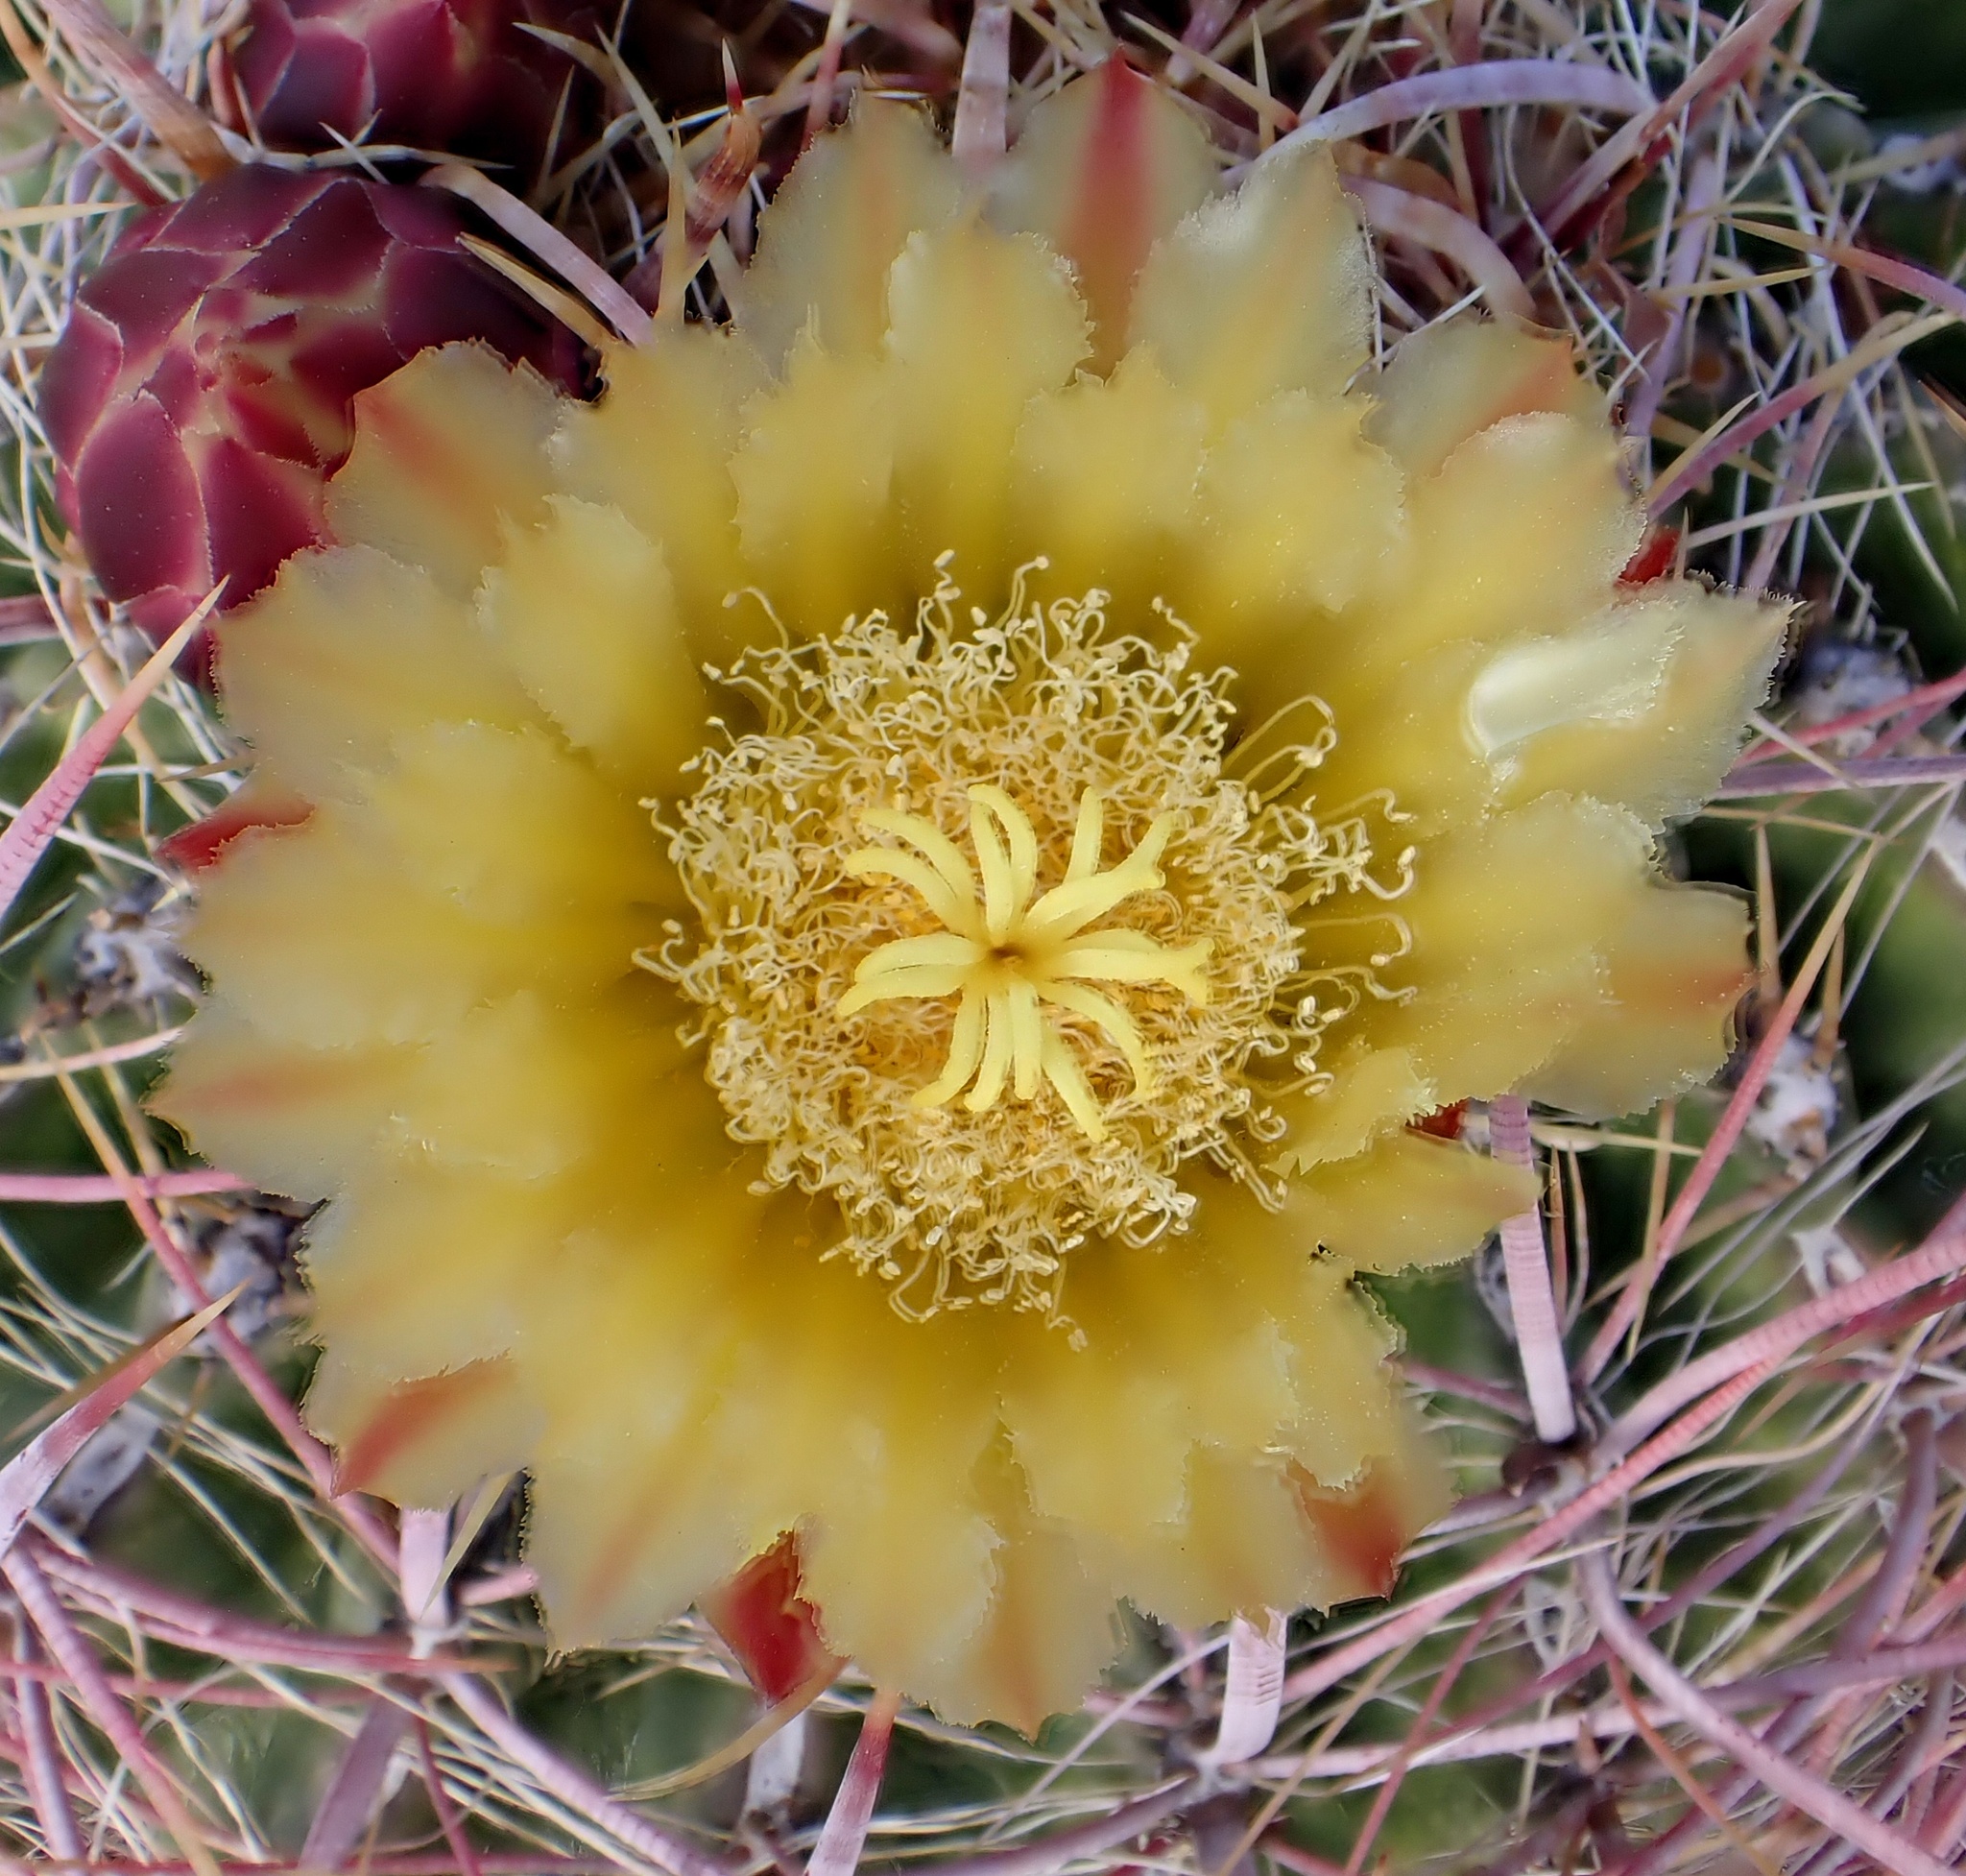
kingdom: Plantae
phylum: Tracheophyta
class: Magnoliopsida
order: Caryophyllales
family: Cactaceae
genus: Ferocactus
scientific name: Ferocactus cylindraceus
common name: California barrel cactus
